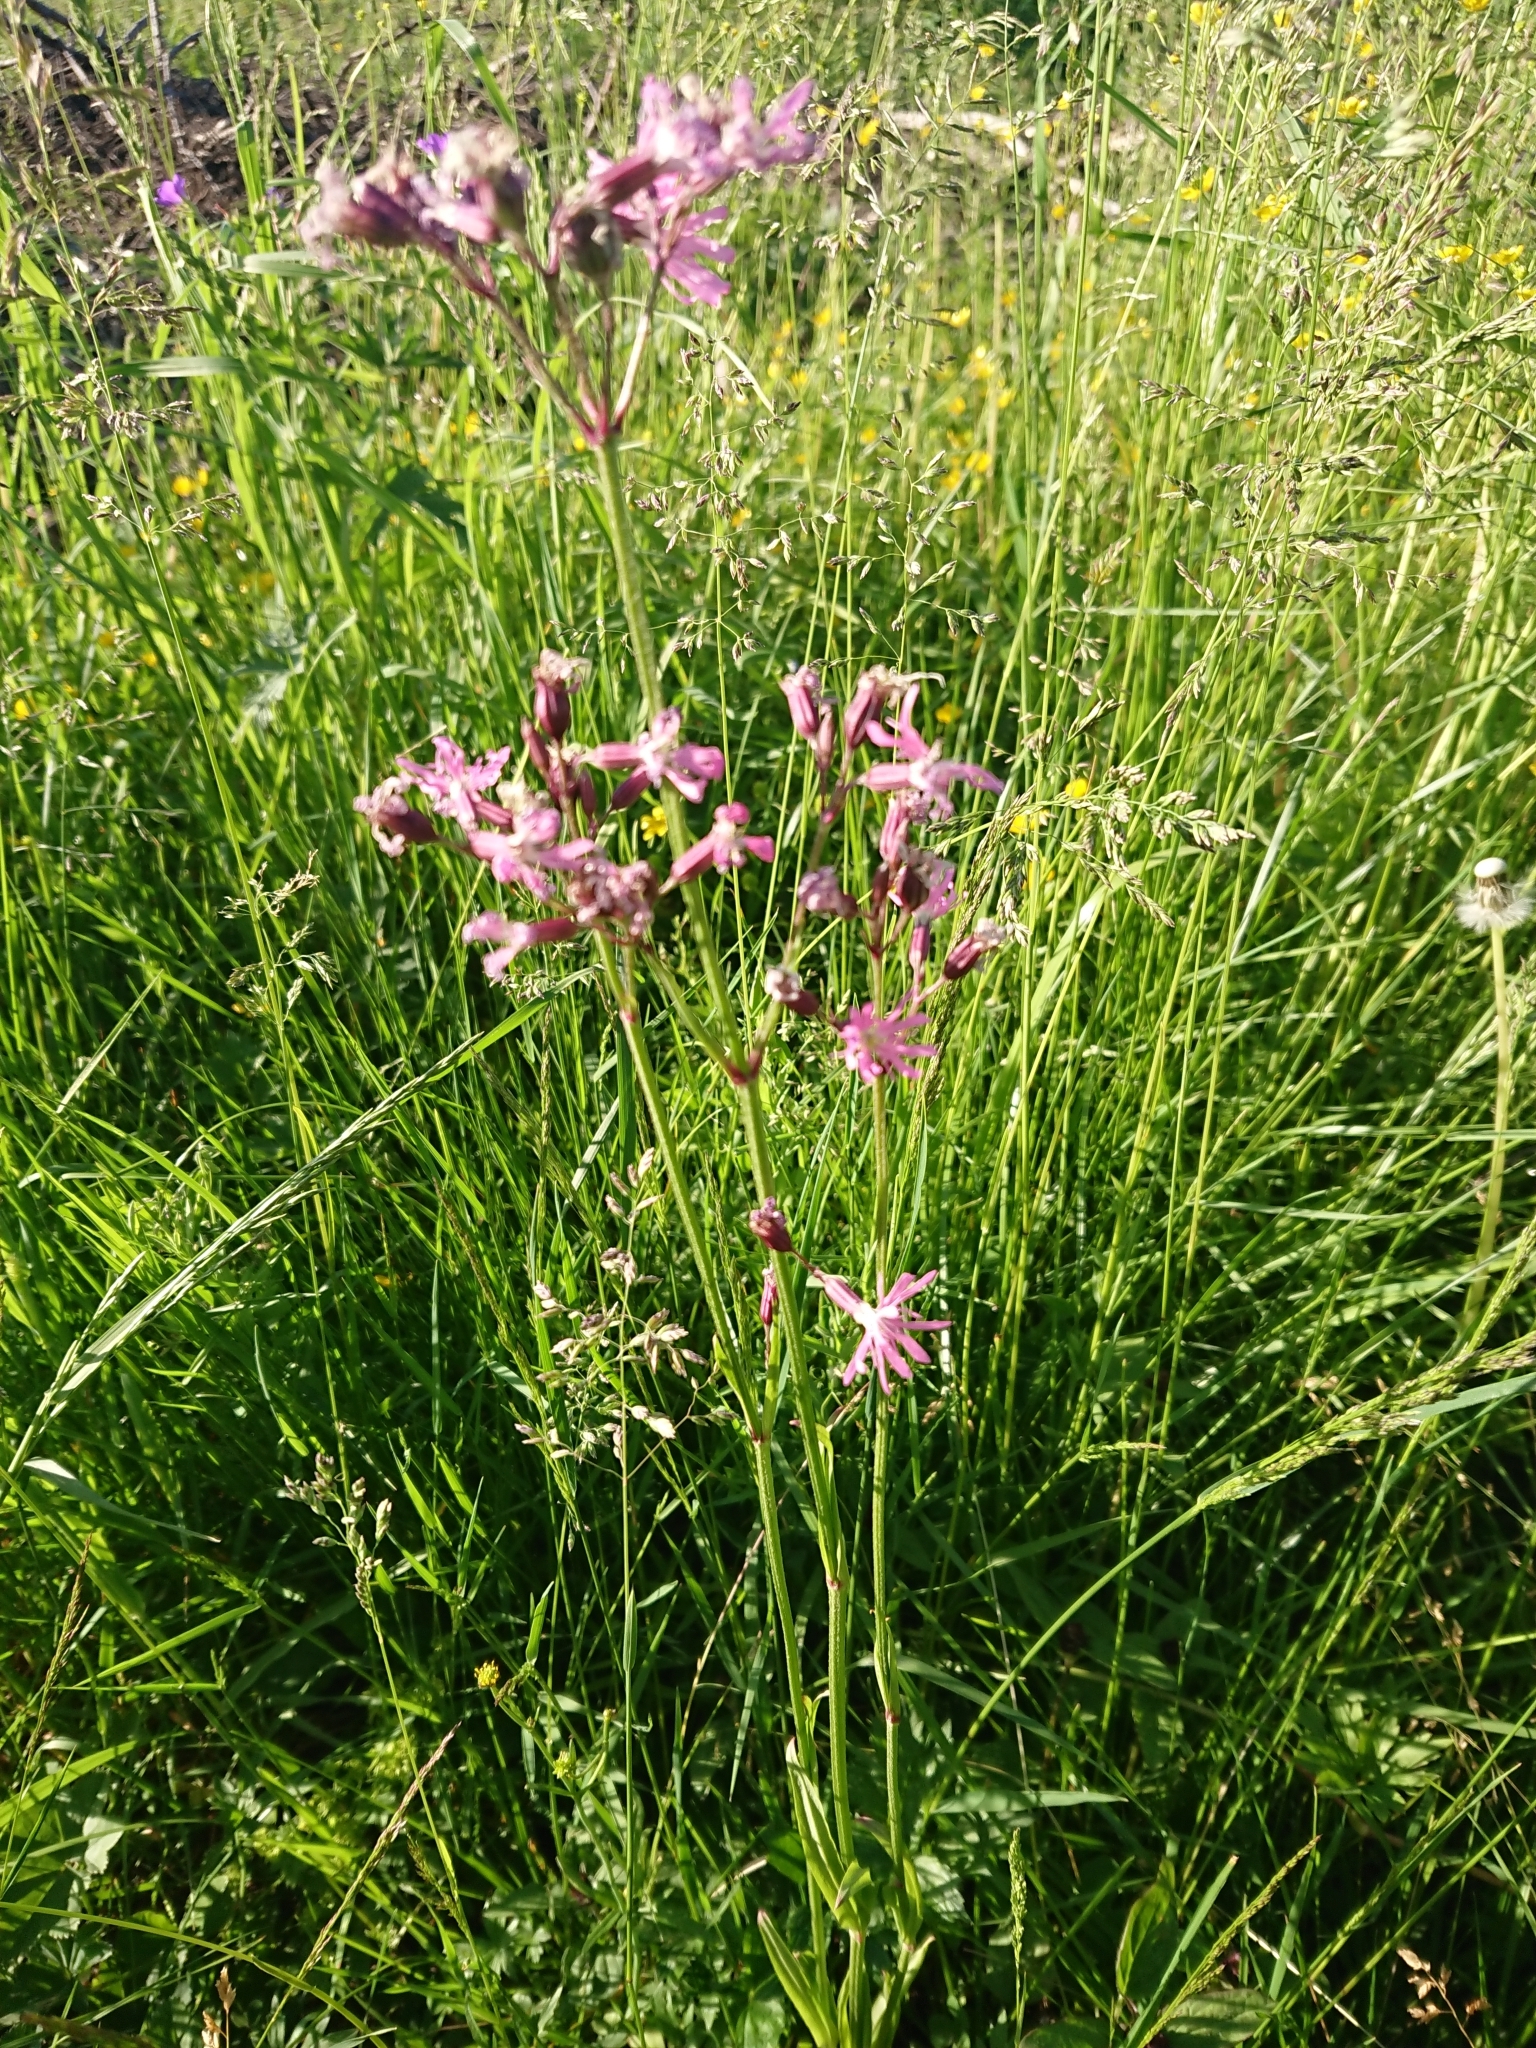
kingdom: Plantae
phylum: Tracheophyta
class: Magnoliopsida
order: Caryophyllales
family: Caryophyllaceae
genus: Silene
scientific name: Silene flos-cuculi
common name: Ragged-robin
